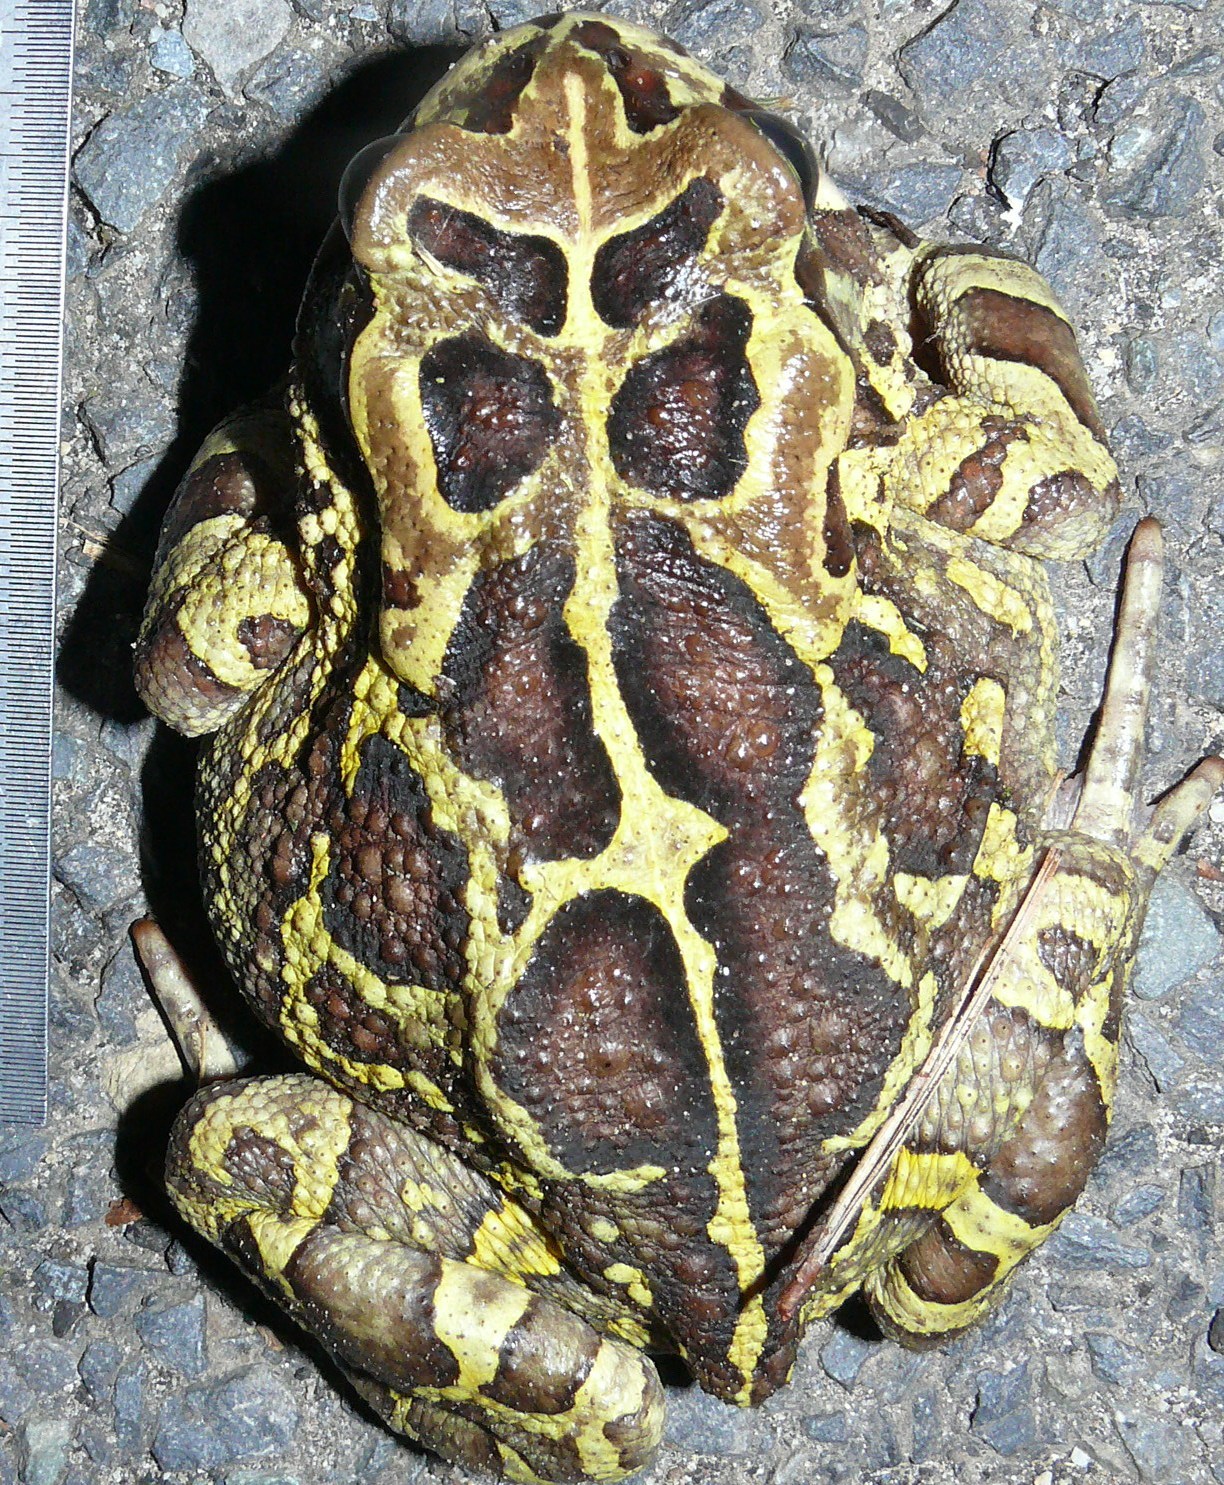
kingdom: Animalia
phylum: Chordata
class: Amphibia
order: Anura
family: Bufonidae
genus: Sclerophrys
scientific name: Sclerophrys pantherina
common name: Panther toad
